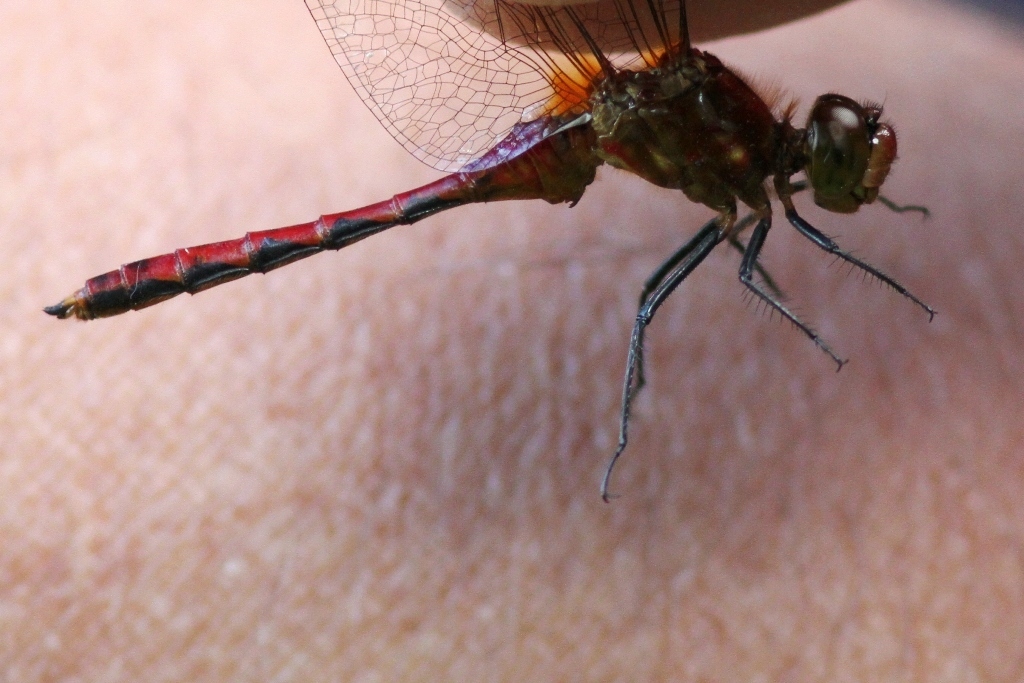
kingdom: Animalia
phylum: Arthropoda
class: Insecta
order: Odonata
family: Libellulidae
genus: Sympetrum
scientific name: Sympetrum internum
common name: Cherry-faced meadowhawk
